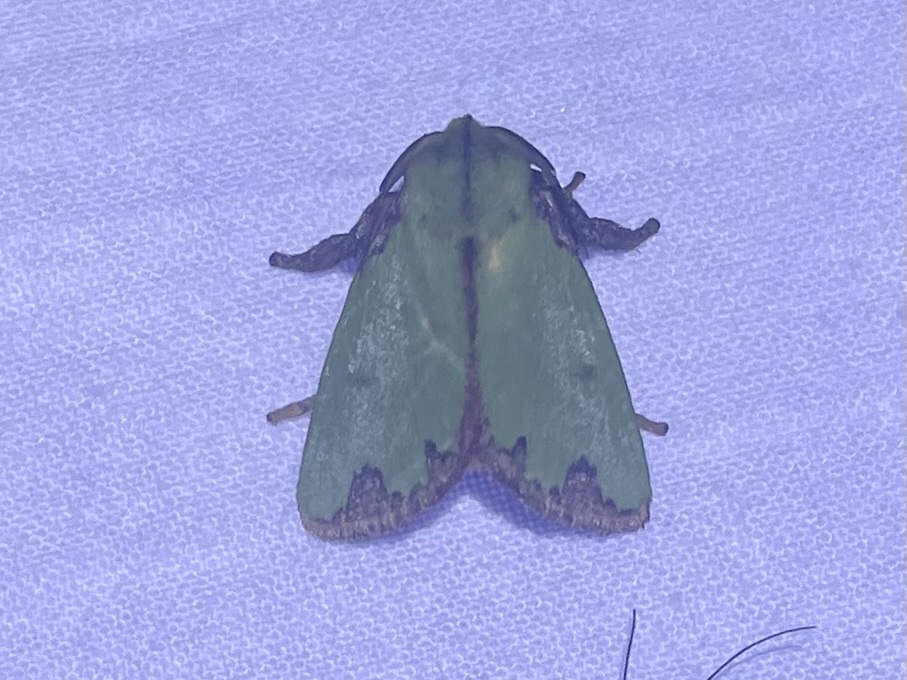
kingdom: Animalia
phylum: Arthropoda
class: Insecta
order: Lepidoptera
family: Limacodidae
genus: Parasa
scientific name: Parasa imitata
